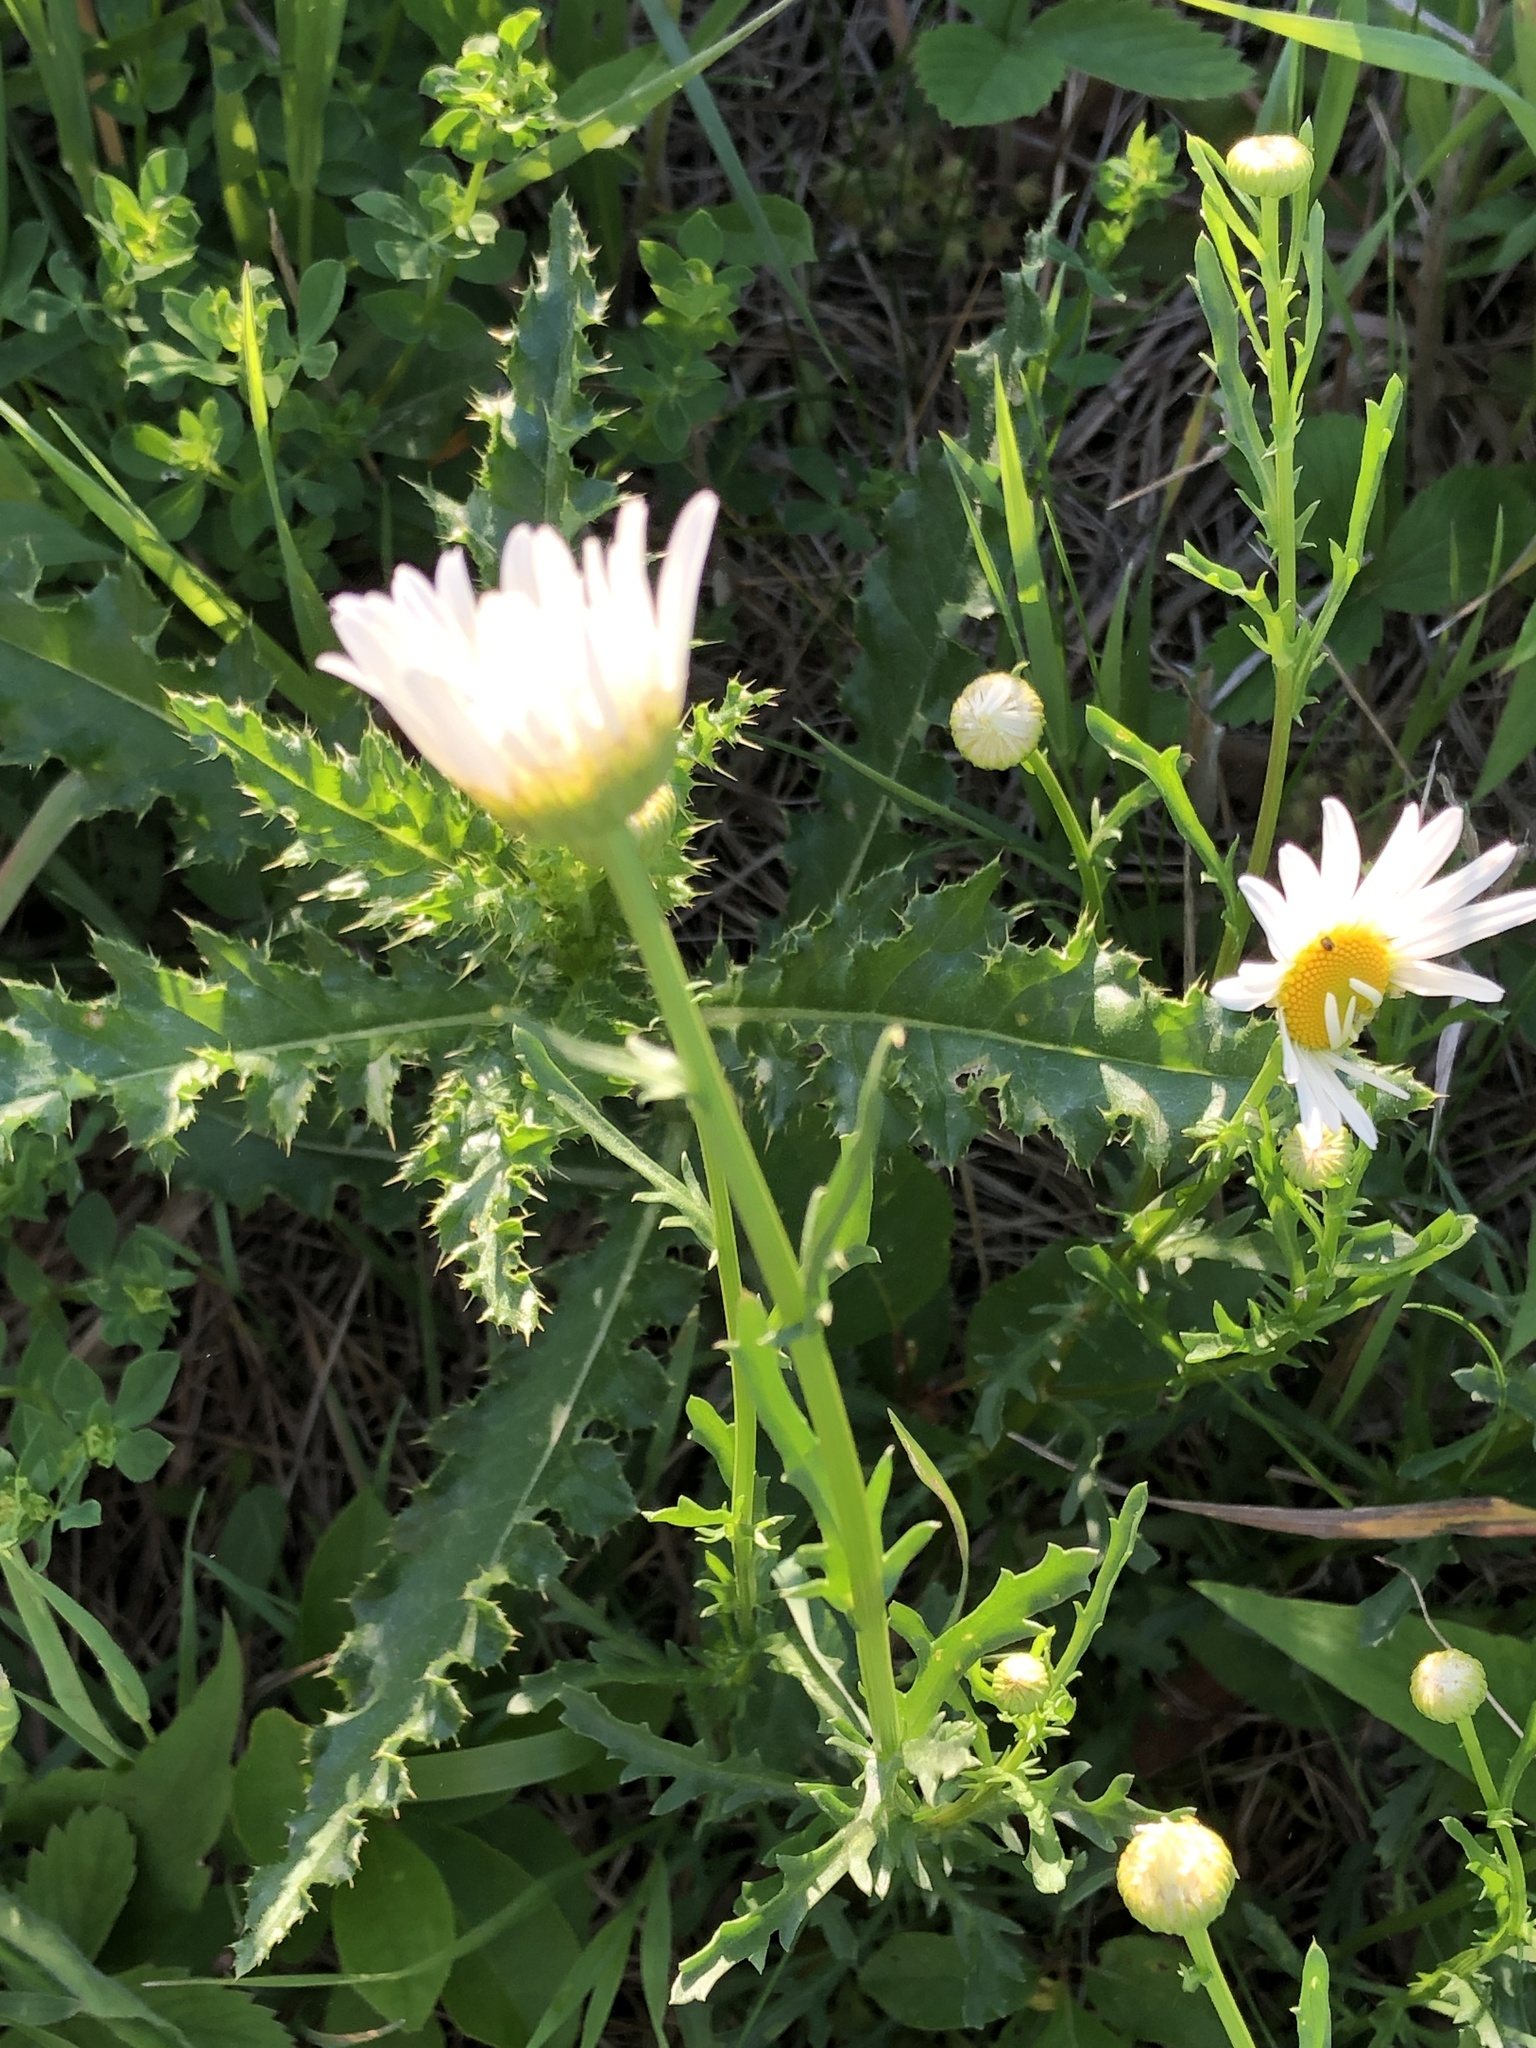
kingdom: Plantae
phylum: Tracheophyta
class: Magnoliopsida
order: Asterales
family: Asteraceae
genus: Leucanthemum
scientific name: Leucanthemum vulgare
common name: Oxeye daisy
